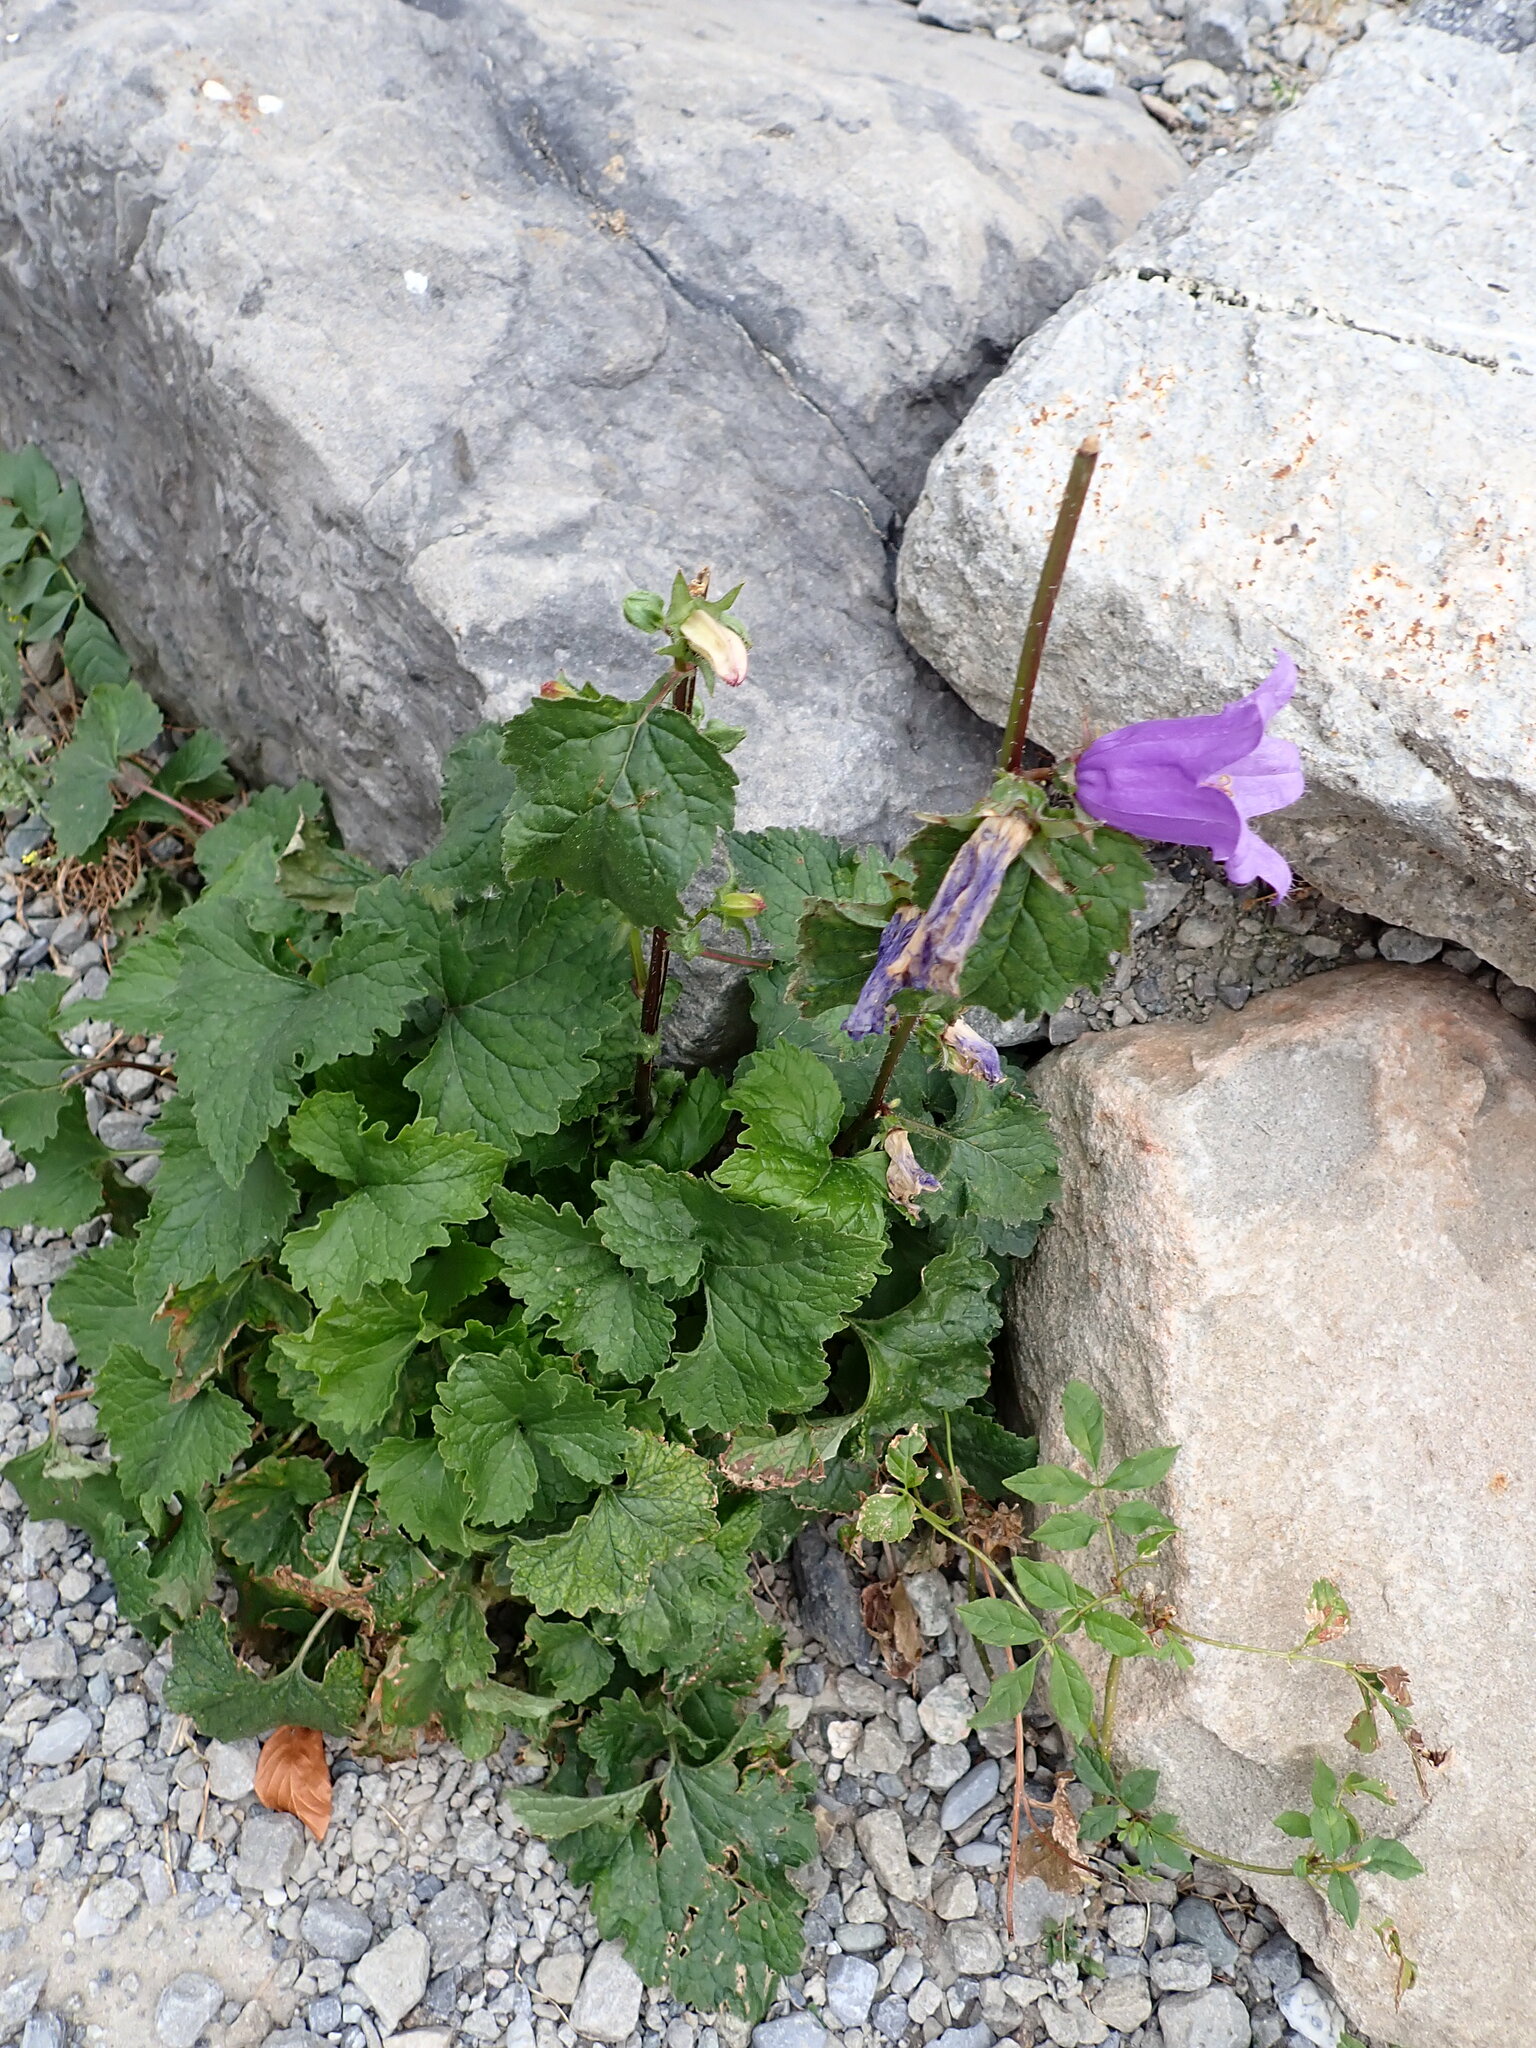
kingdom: Plantae
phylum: Tracheophyta
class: Magnoliopsida
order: Asterales
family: Campanulaceae
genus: Campanula
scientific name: Campanula trachelium
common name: Nettle-leaved bellflower
